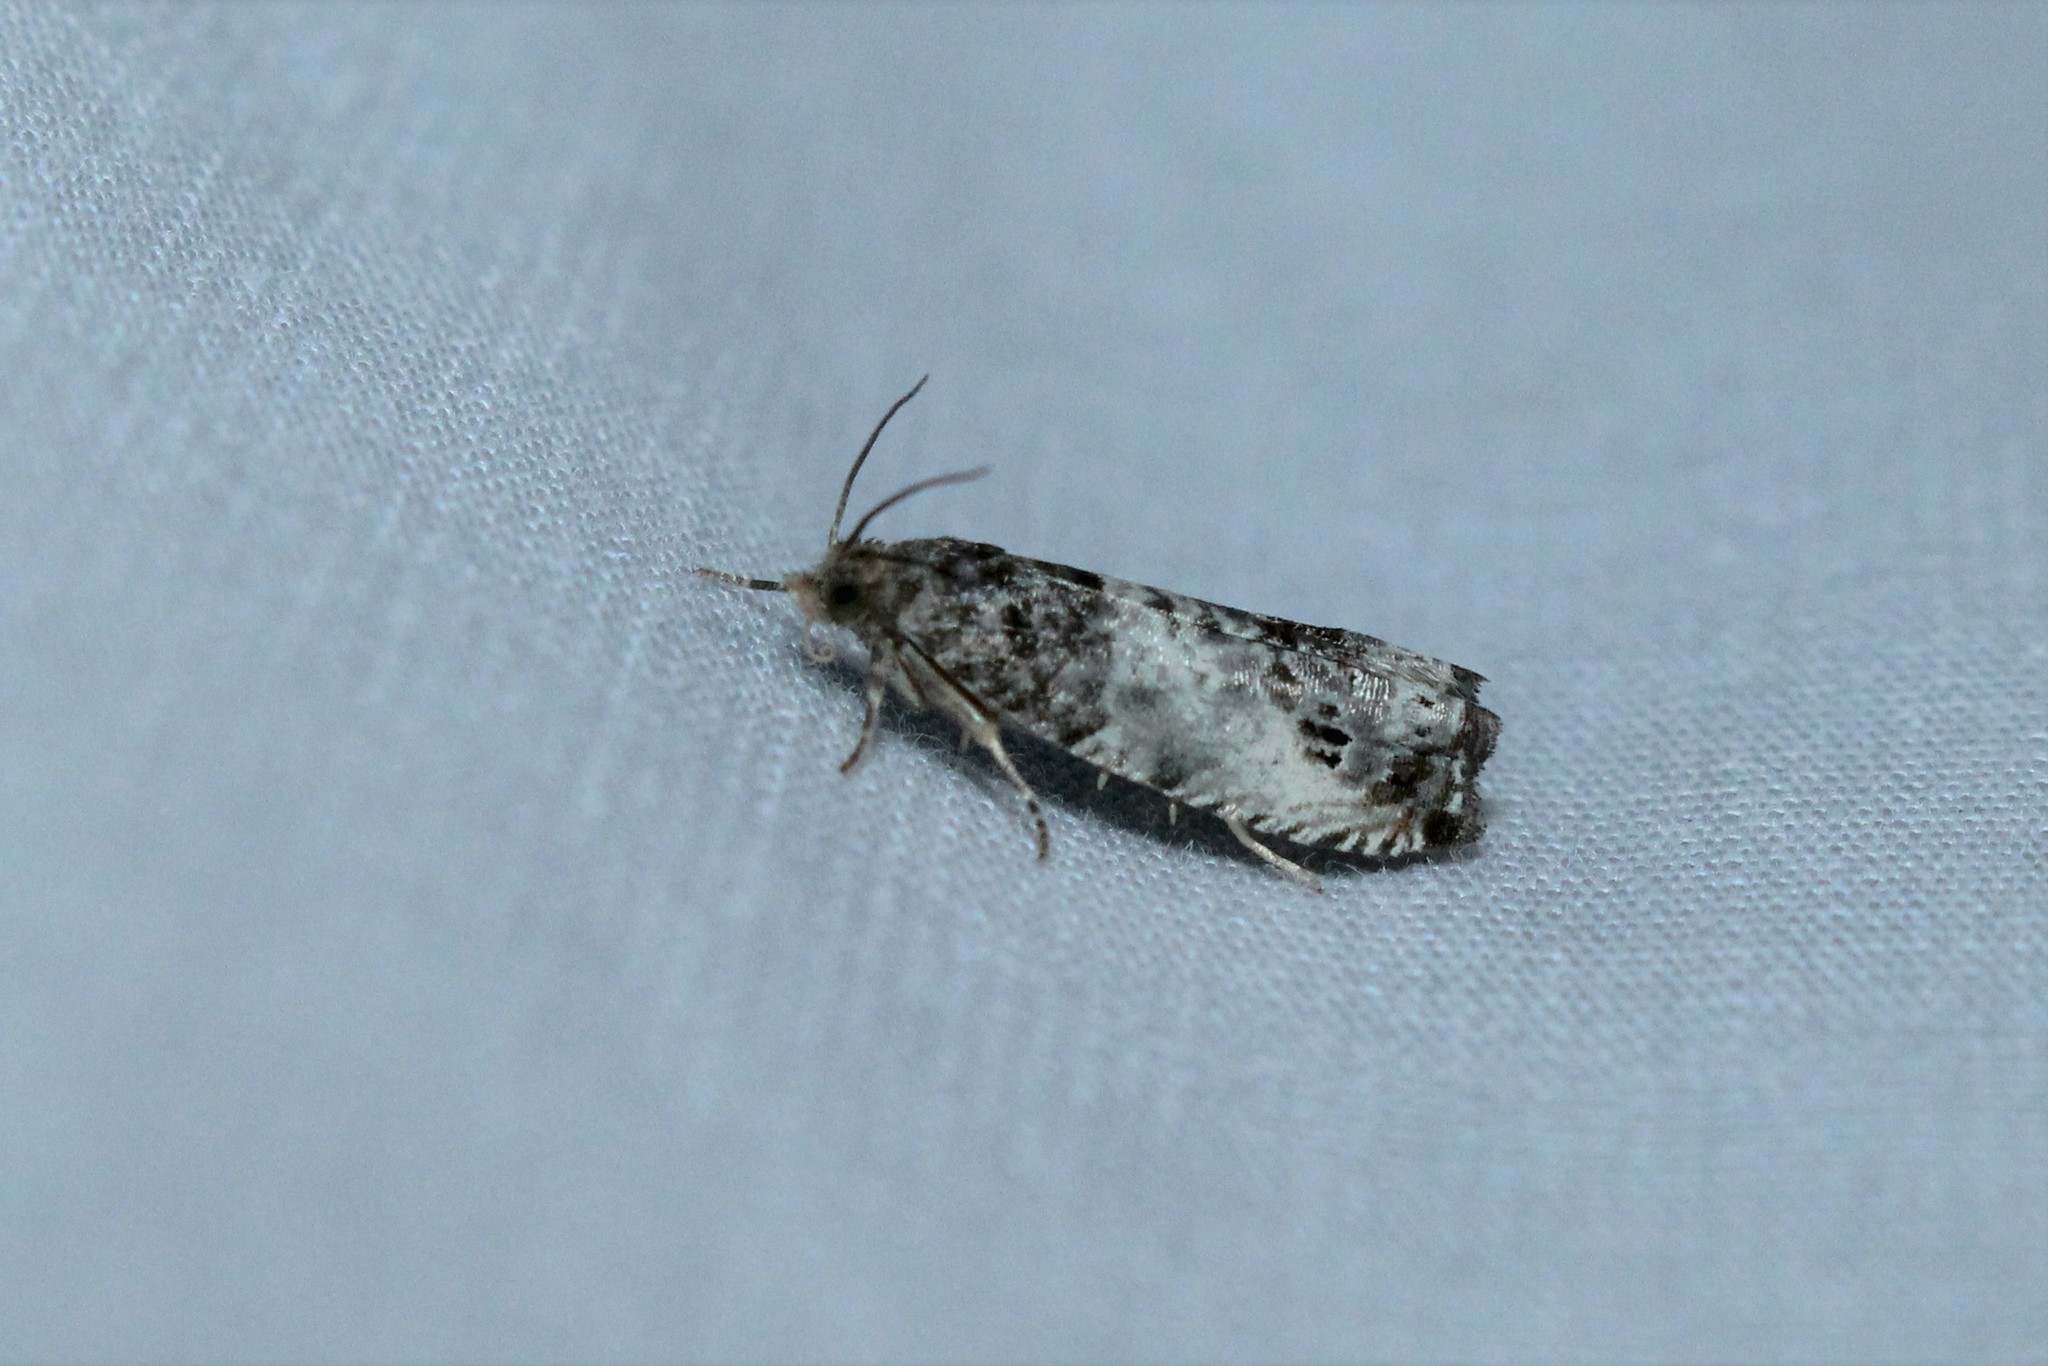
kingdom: Animalia
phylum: Arthropoda
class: Insecta
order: Lepidoptera
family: Tortricidae
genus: Notocelia
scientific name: Notocelia rosaecolana
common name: Common rose bell
